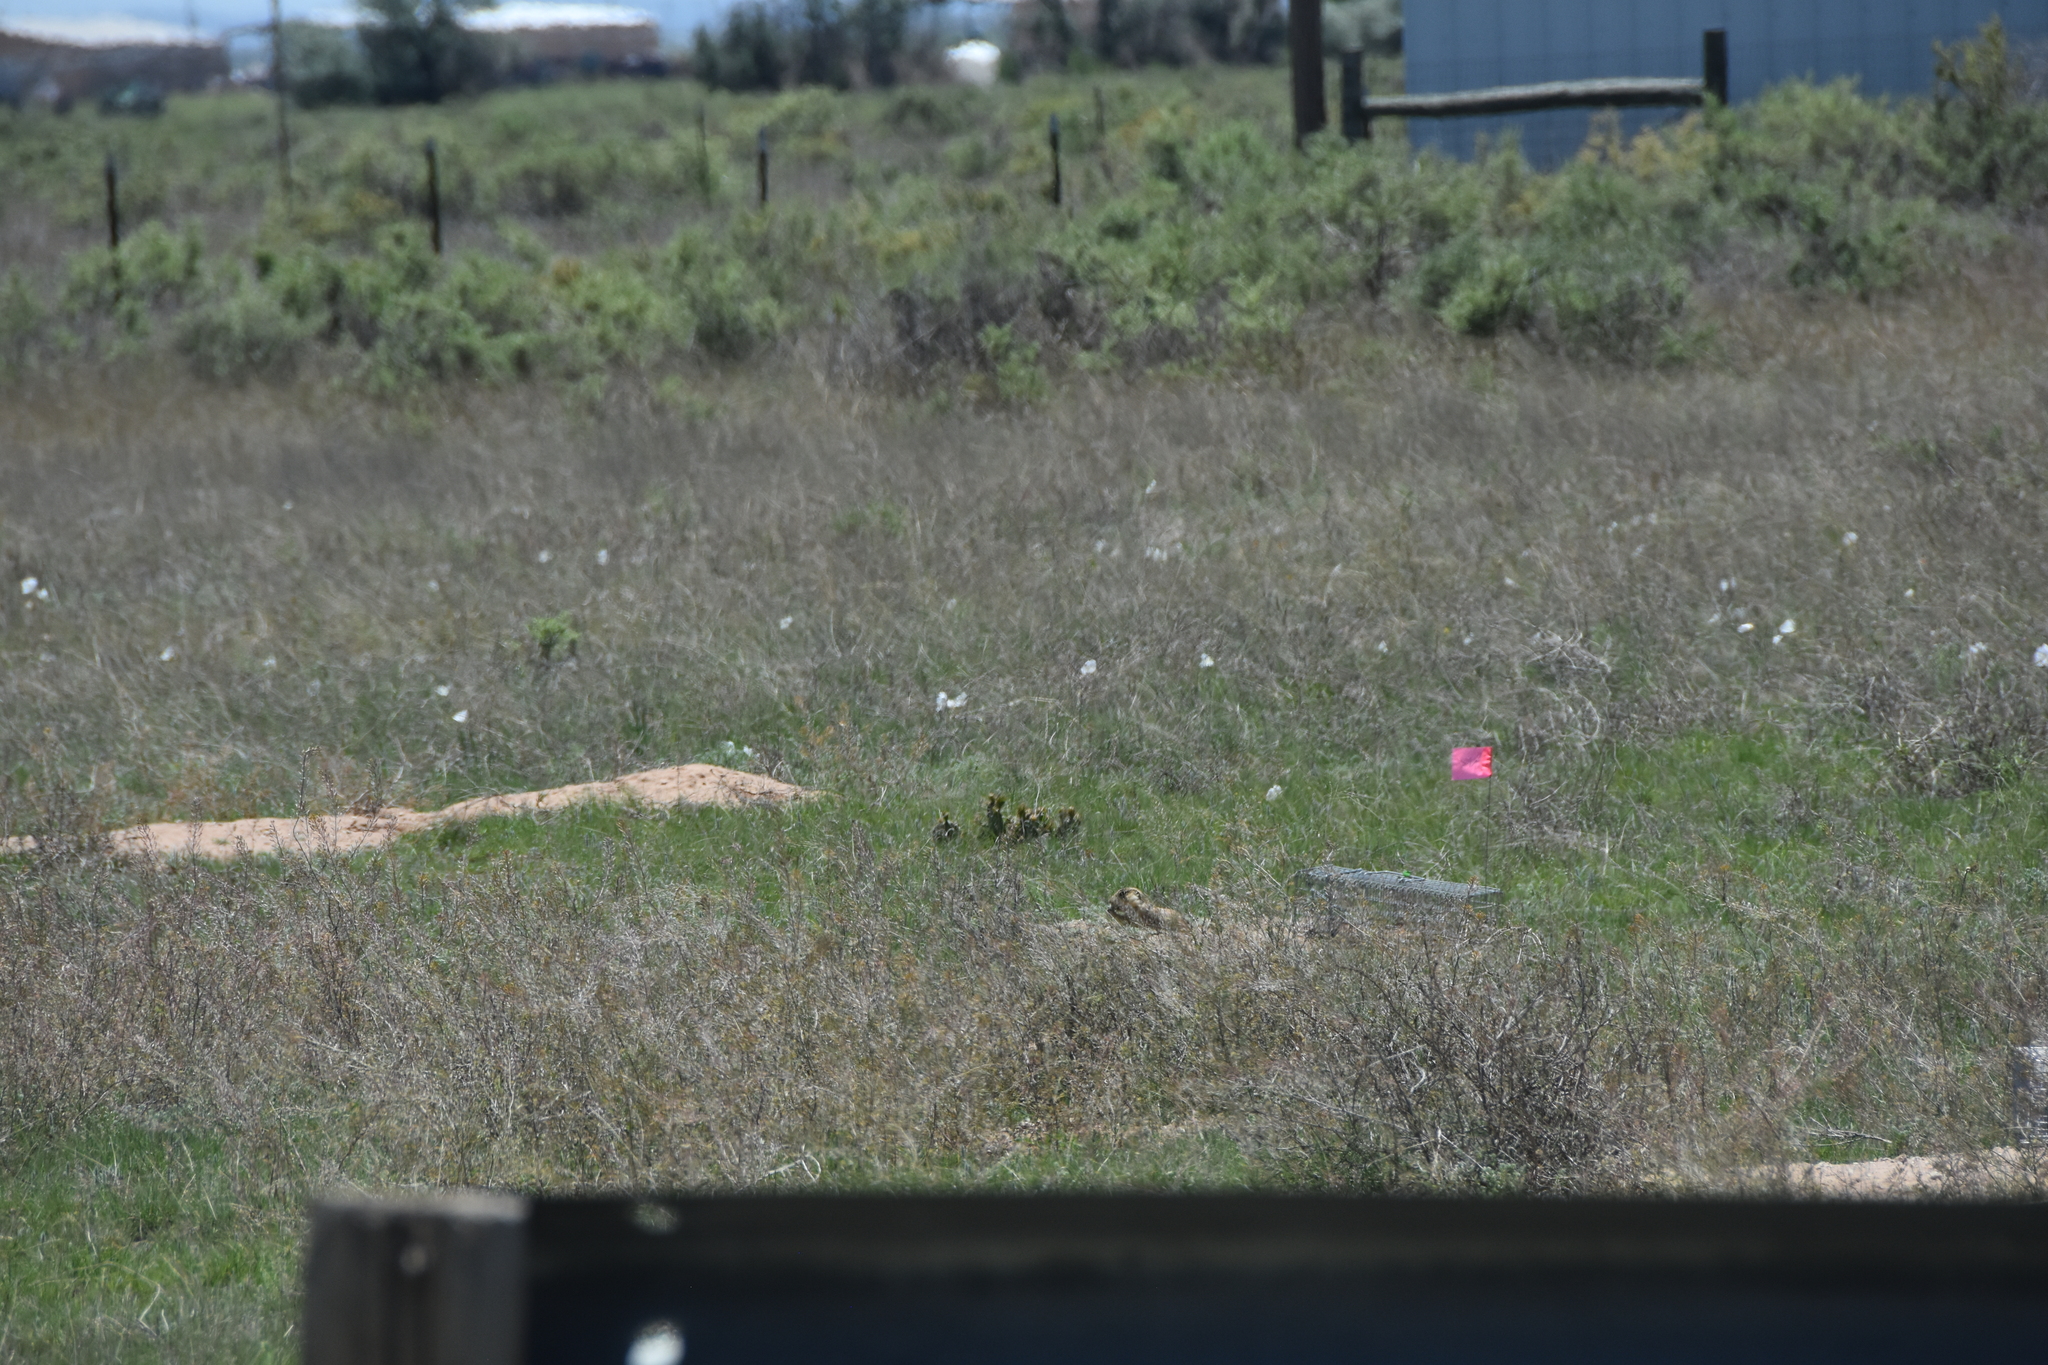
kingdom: Animalia
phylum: Chordata
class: Mammalia
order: Rodentia
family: Sciuridae
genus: Cynomys
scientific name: Cynomys gunnisoni
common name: Gunnison's prairie dog
